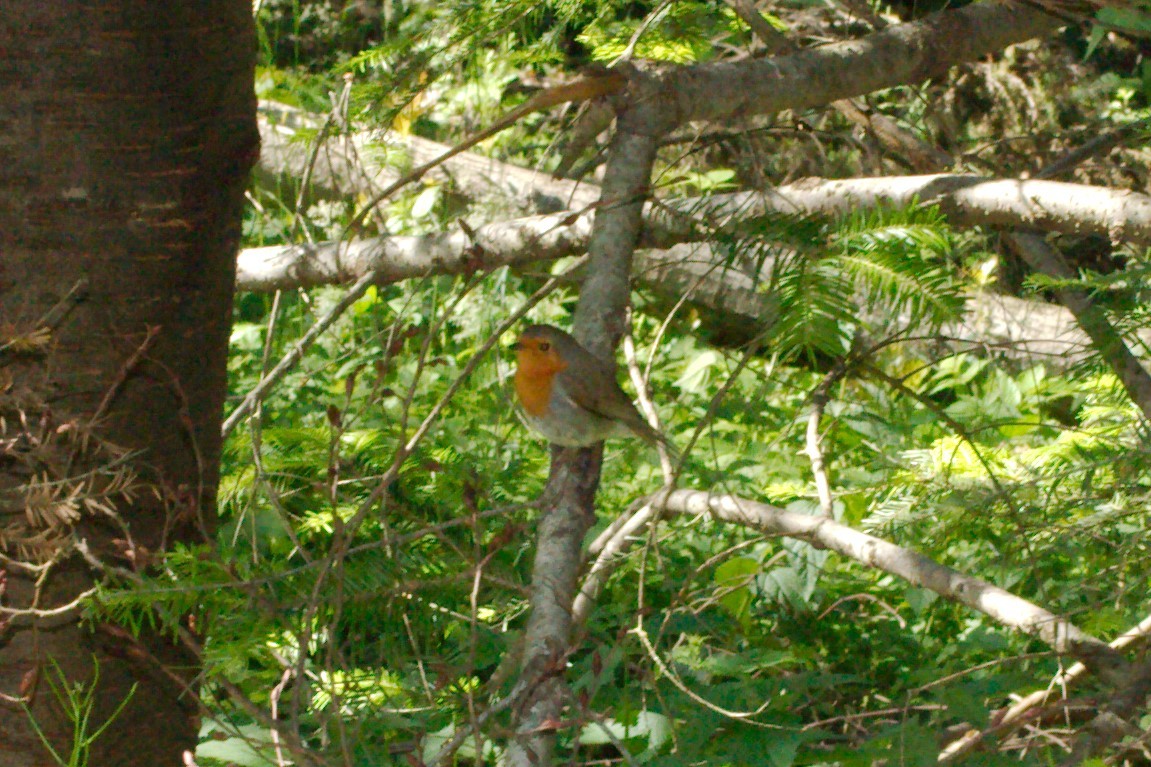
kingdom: Animalia
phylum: Chordata
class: Aves
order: Passeriformes
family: Muscicapidae
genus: Erithacus
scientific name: Erithacus rubecula
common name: European robin
